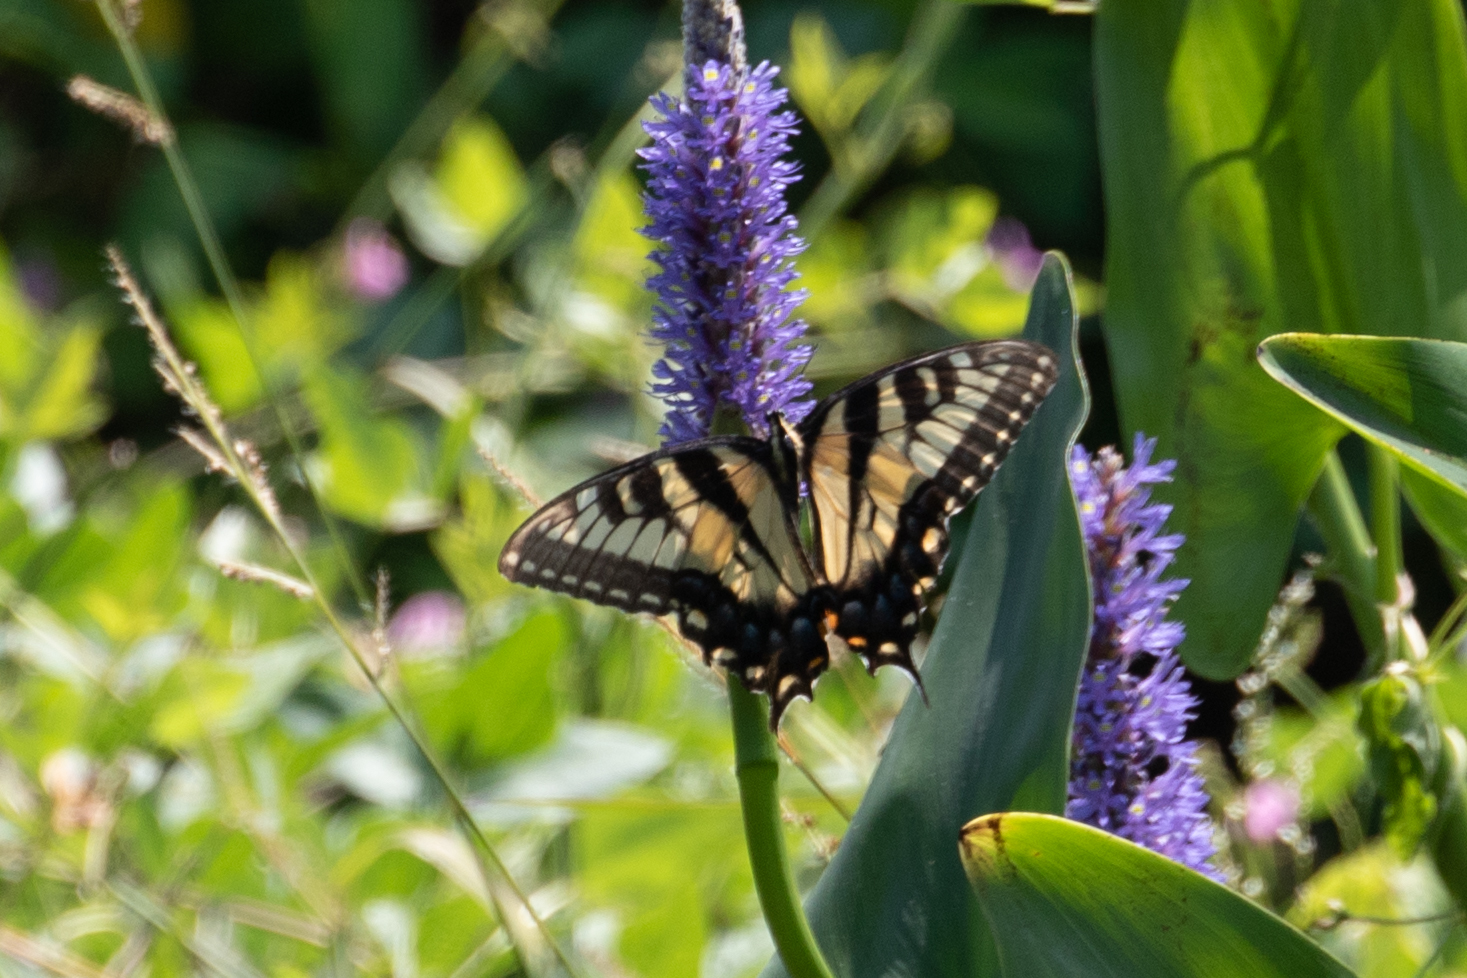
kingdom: Animalia
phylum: Arthropoda
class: Insecta
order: Lepidoptera
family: Papilionidae
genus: Papilio
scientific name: Papilio glaucus
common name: Tiger swallowtail
